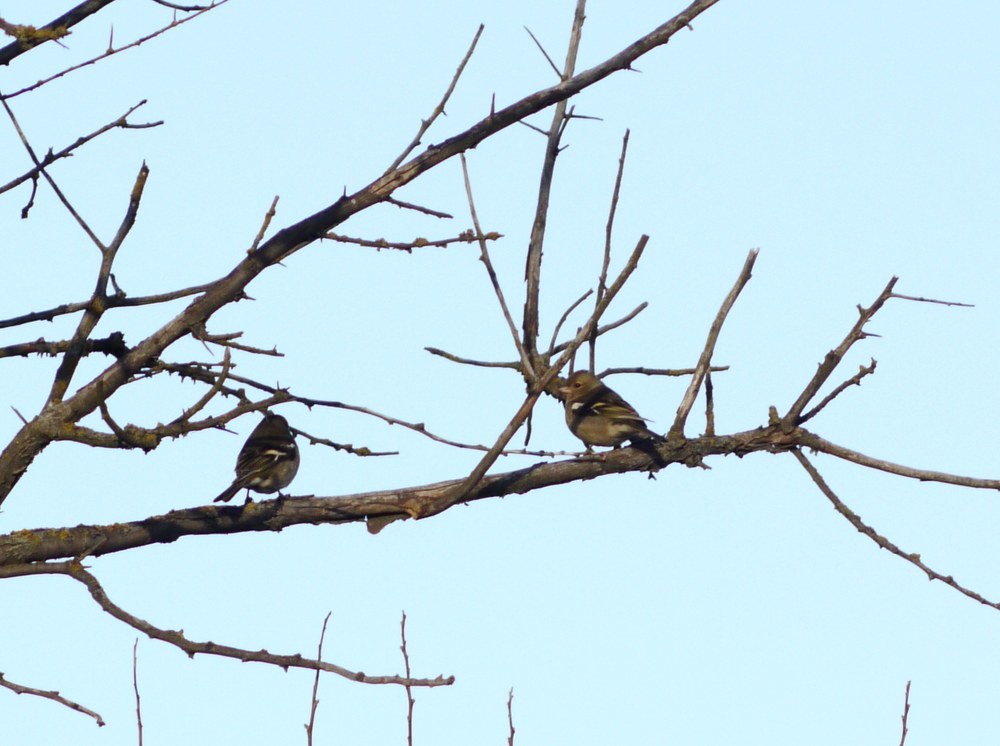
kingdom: Animalia
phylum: Chordata
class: Aves
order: Passeriformes
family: Fringillidae
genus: Fringilla
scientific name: Fringilla coelebs
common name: Common chaffinch
